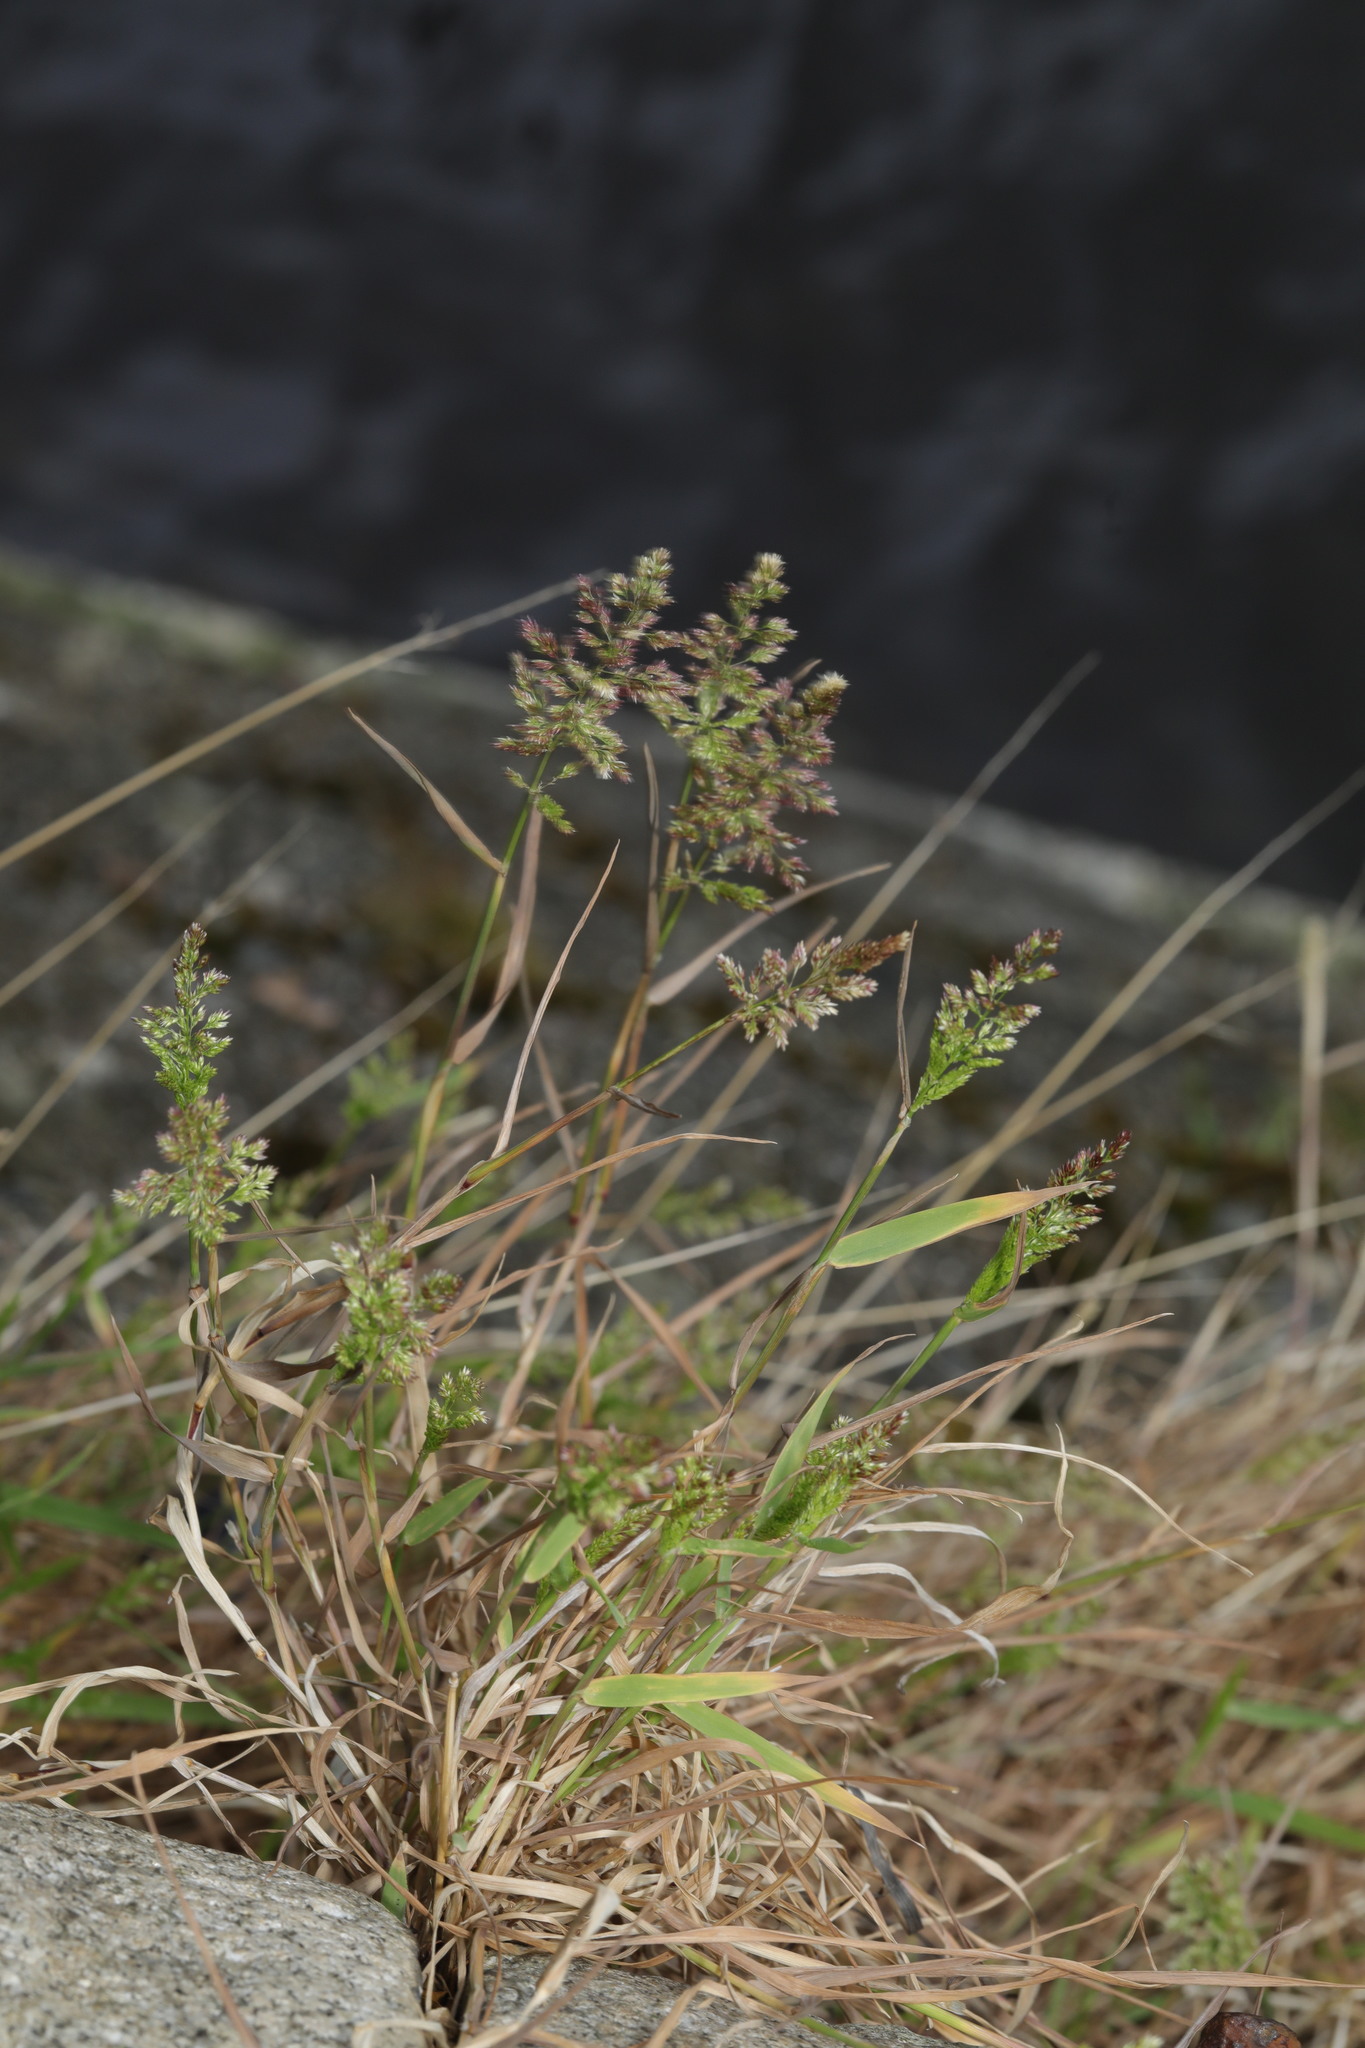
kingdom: Plantae
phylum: Tracheophyta
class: Liliopsida
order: Poales
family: Poaceae
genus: Polypogon
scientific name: Polypogon viridis
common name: Water bent
